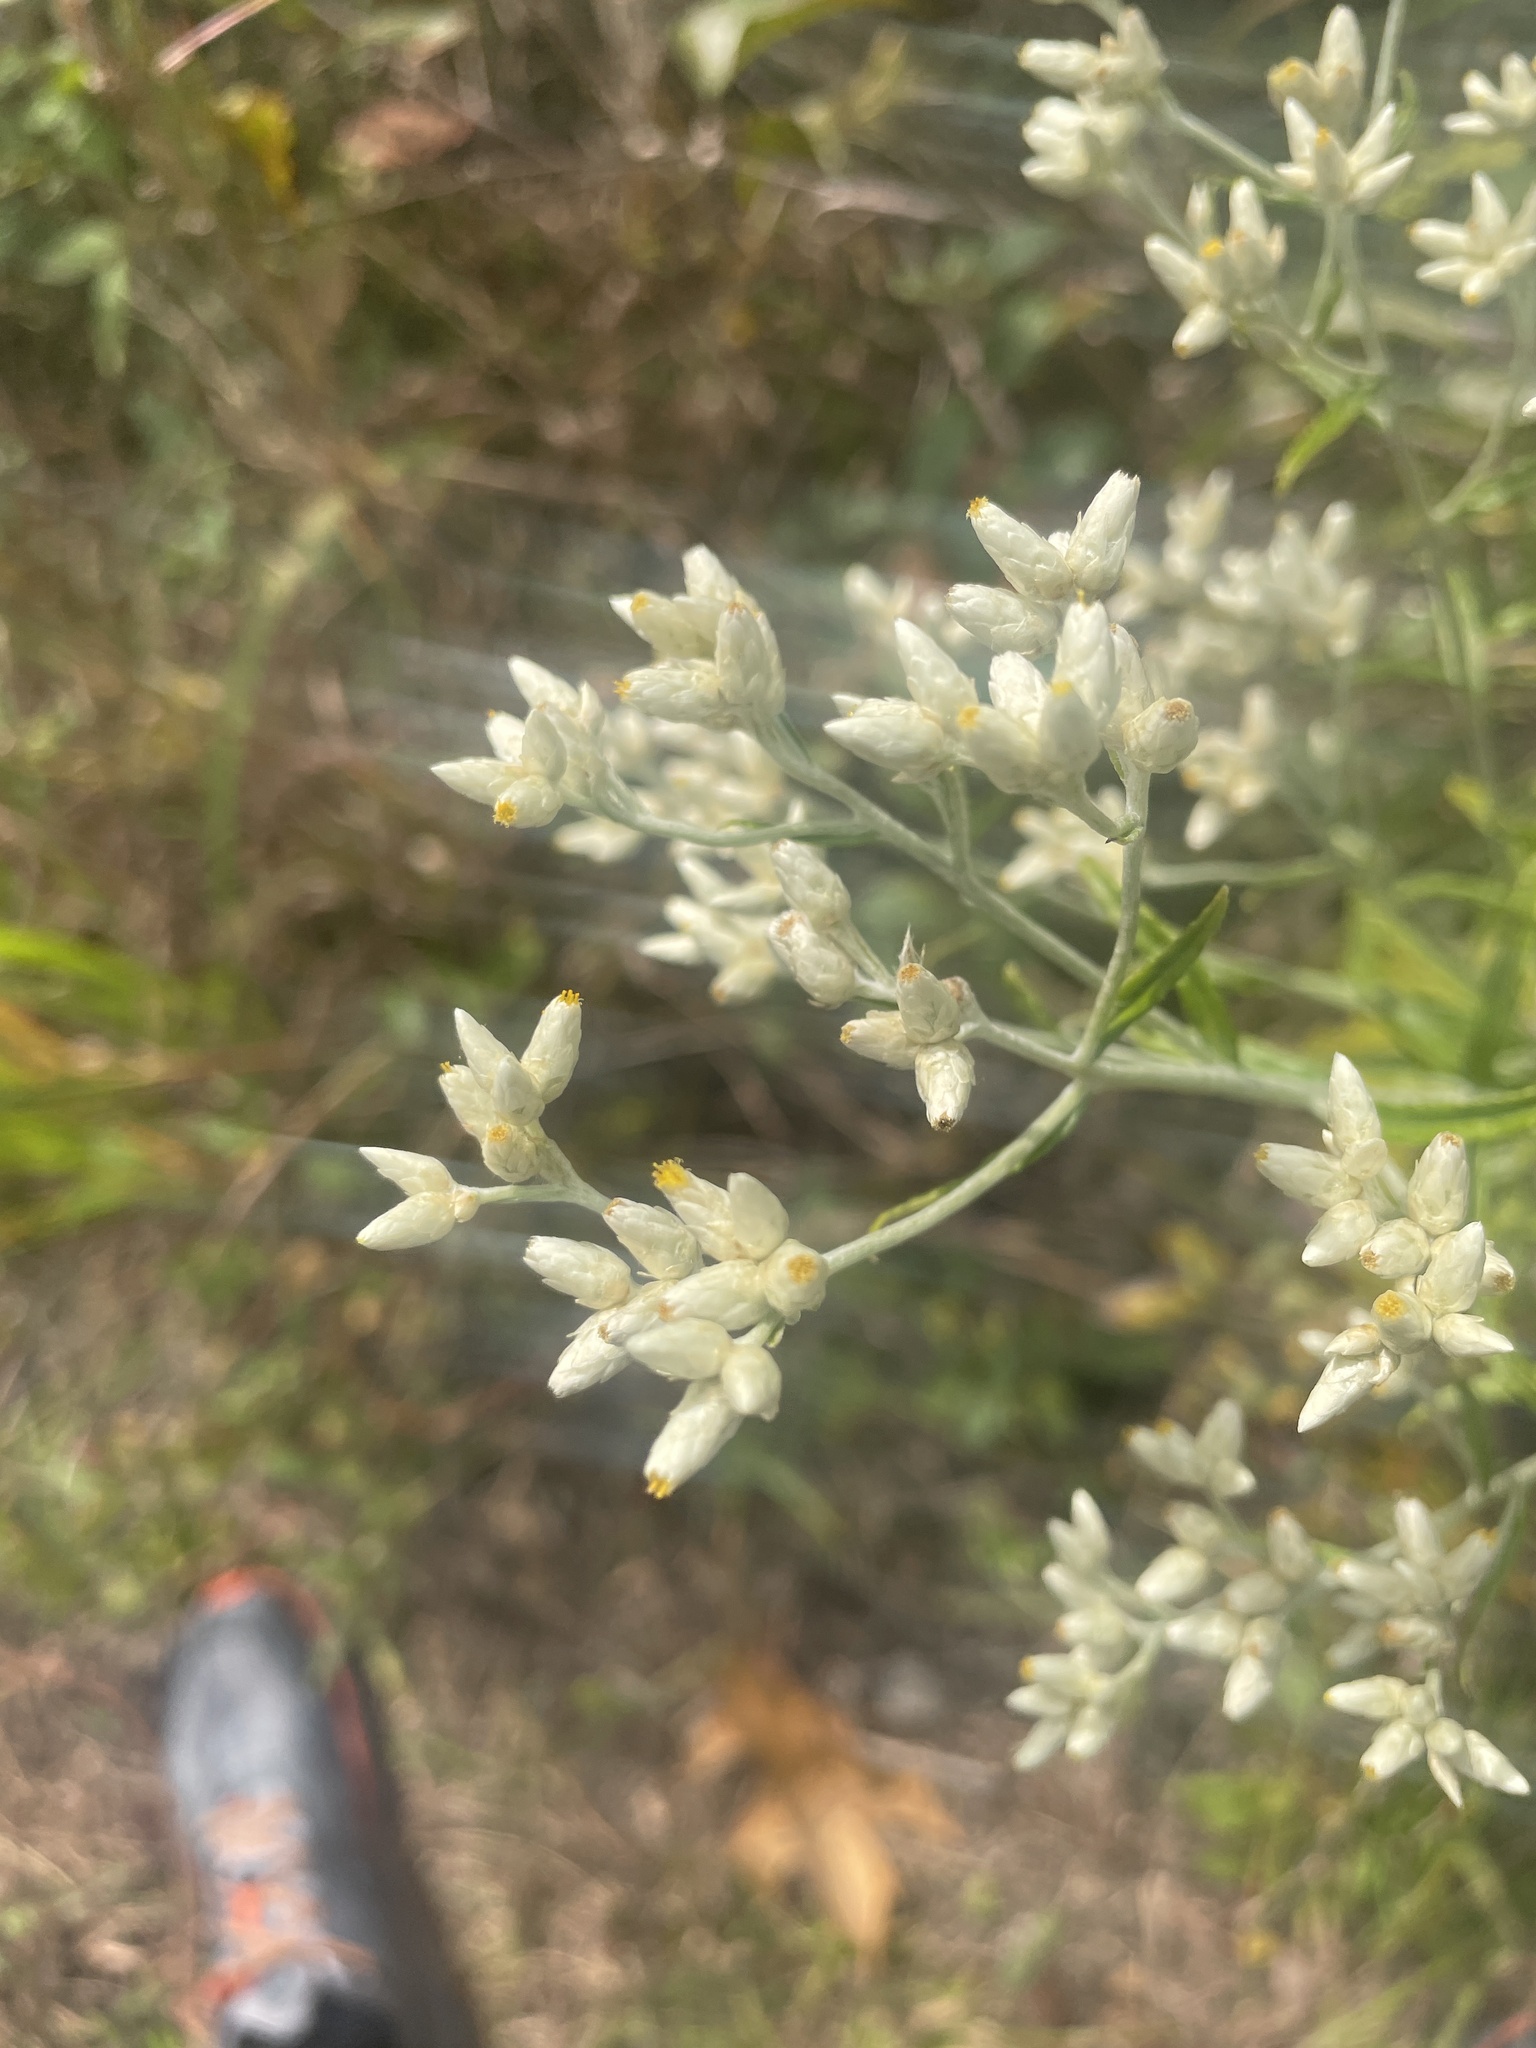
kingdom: Plantae
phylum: Tracheophyta
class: Magnoliopsida
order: Asterales
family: Asteraceae
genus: Pseudognaphalium
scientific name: Pseudognaphalium obtusifolium
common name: Eastern rabbit-tobacco
